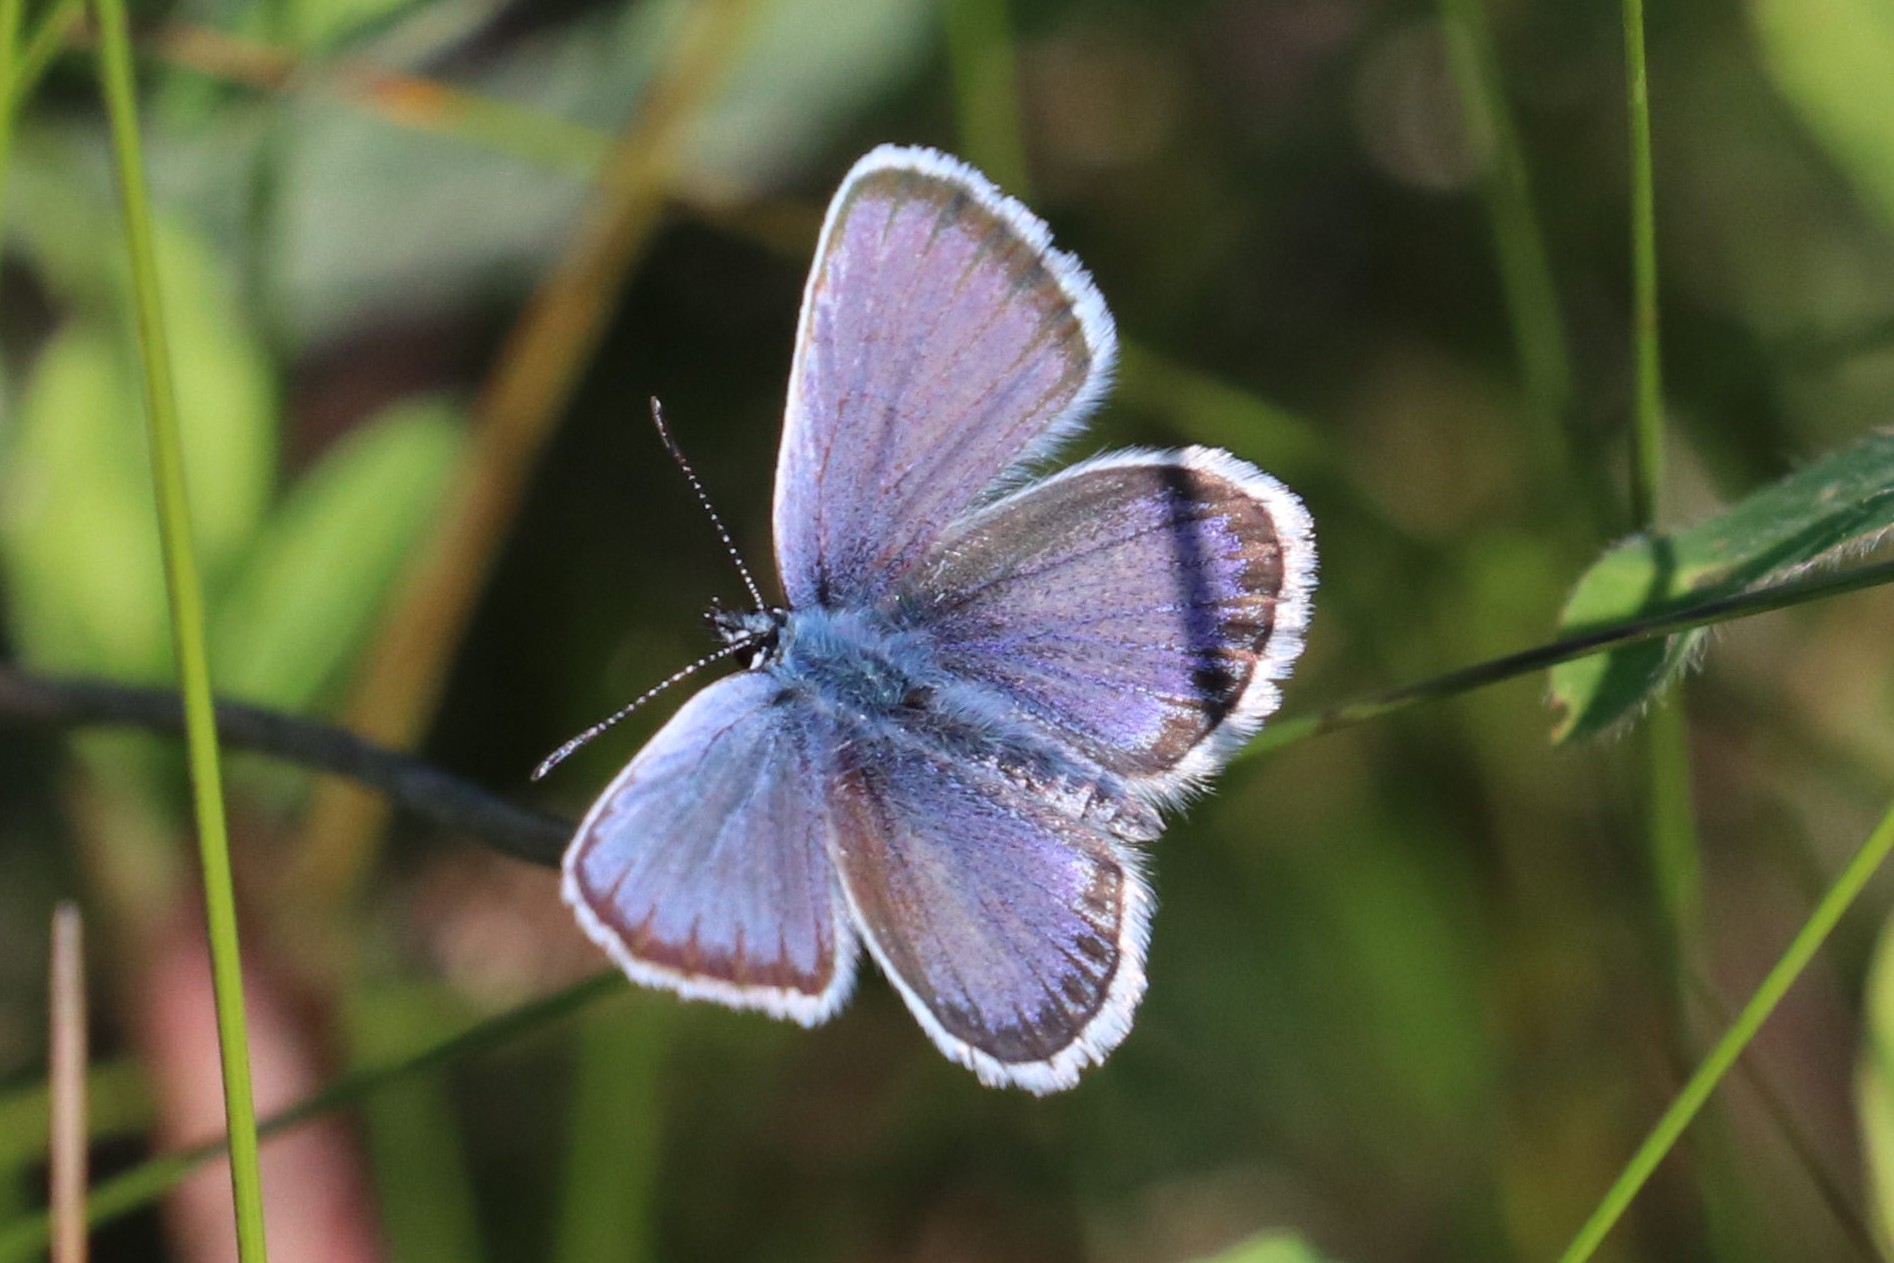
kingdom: Animalia
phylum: Arthropoda
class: Insecta
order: Lepidoptera
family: Lycaenidae
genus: Plebejus
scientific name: Plebejus argus
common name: Silver-studded blue
